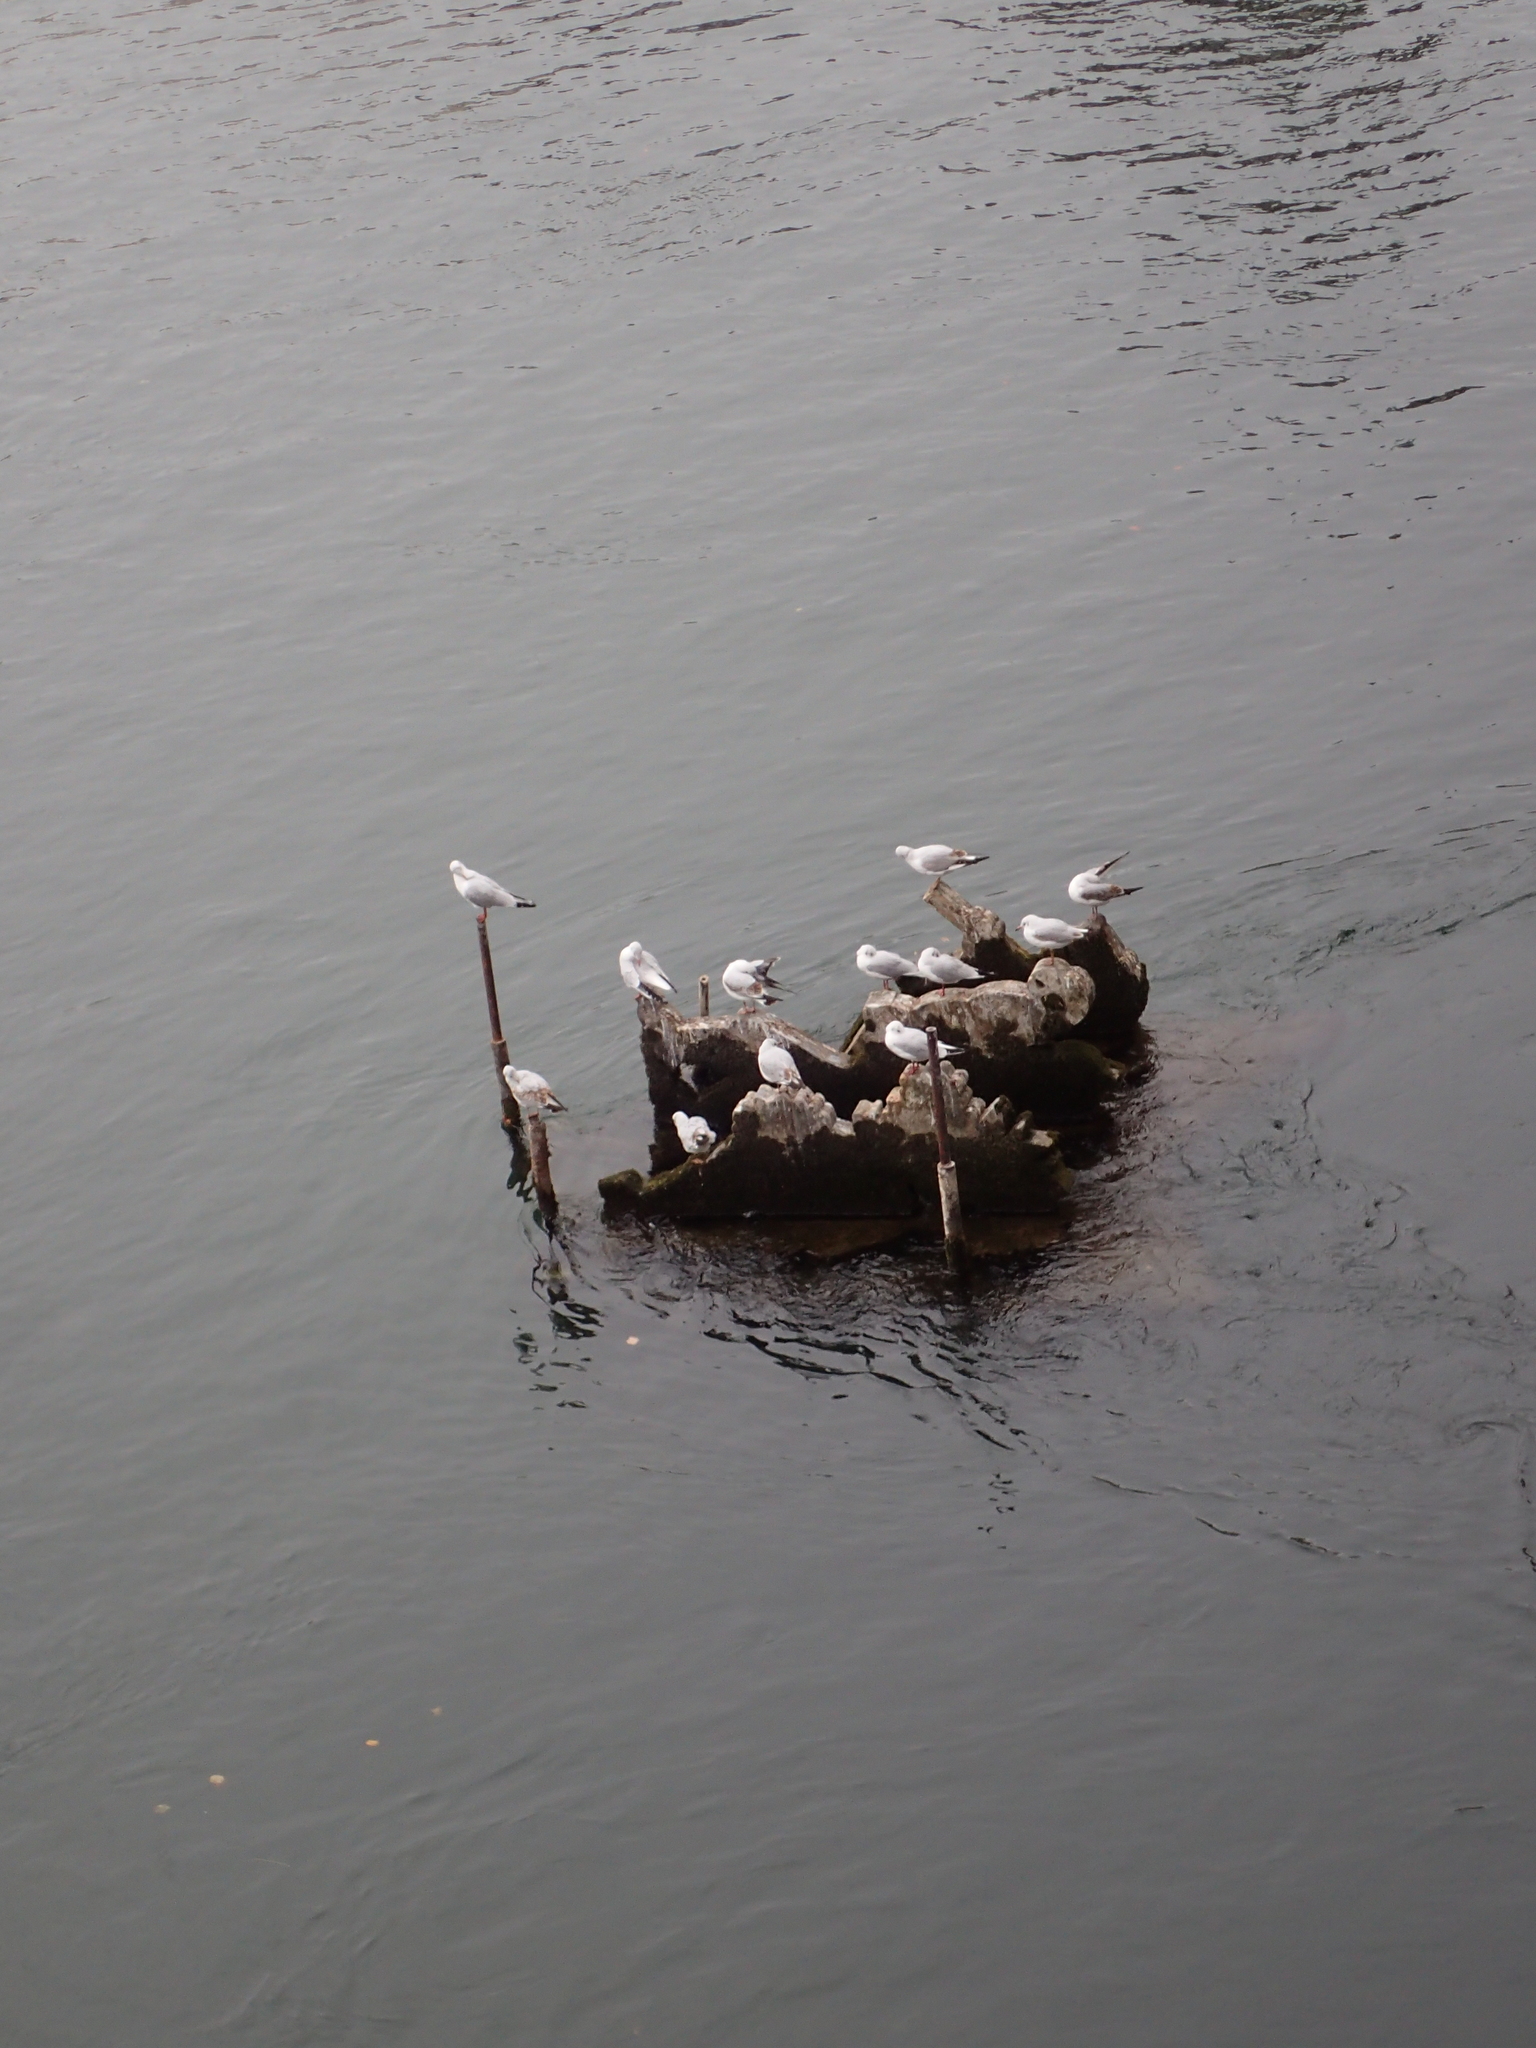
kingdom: Animalia
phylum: Chordata
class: Aves
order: Charadriiformes
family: Laridae
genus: Chroicocephalus
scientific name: Chroicocephalus ridibundus
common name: Black-headed gull
